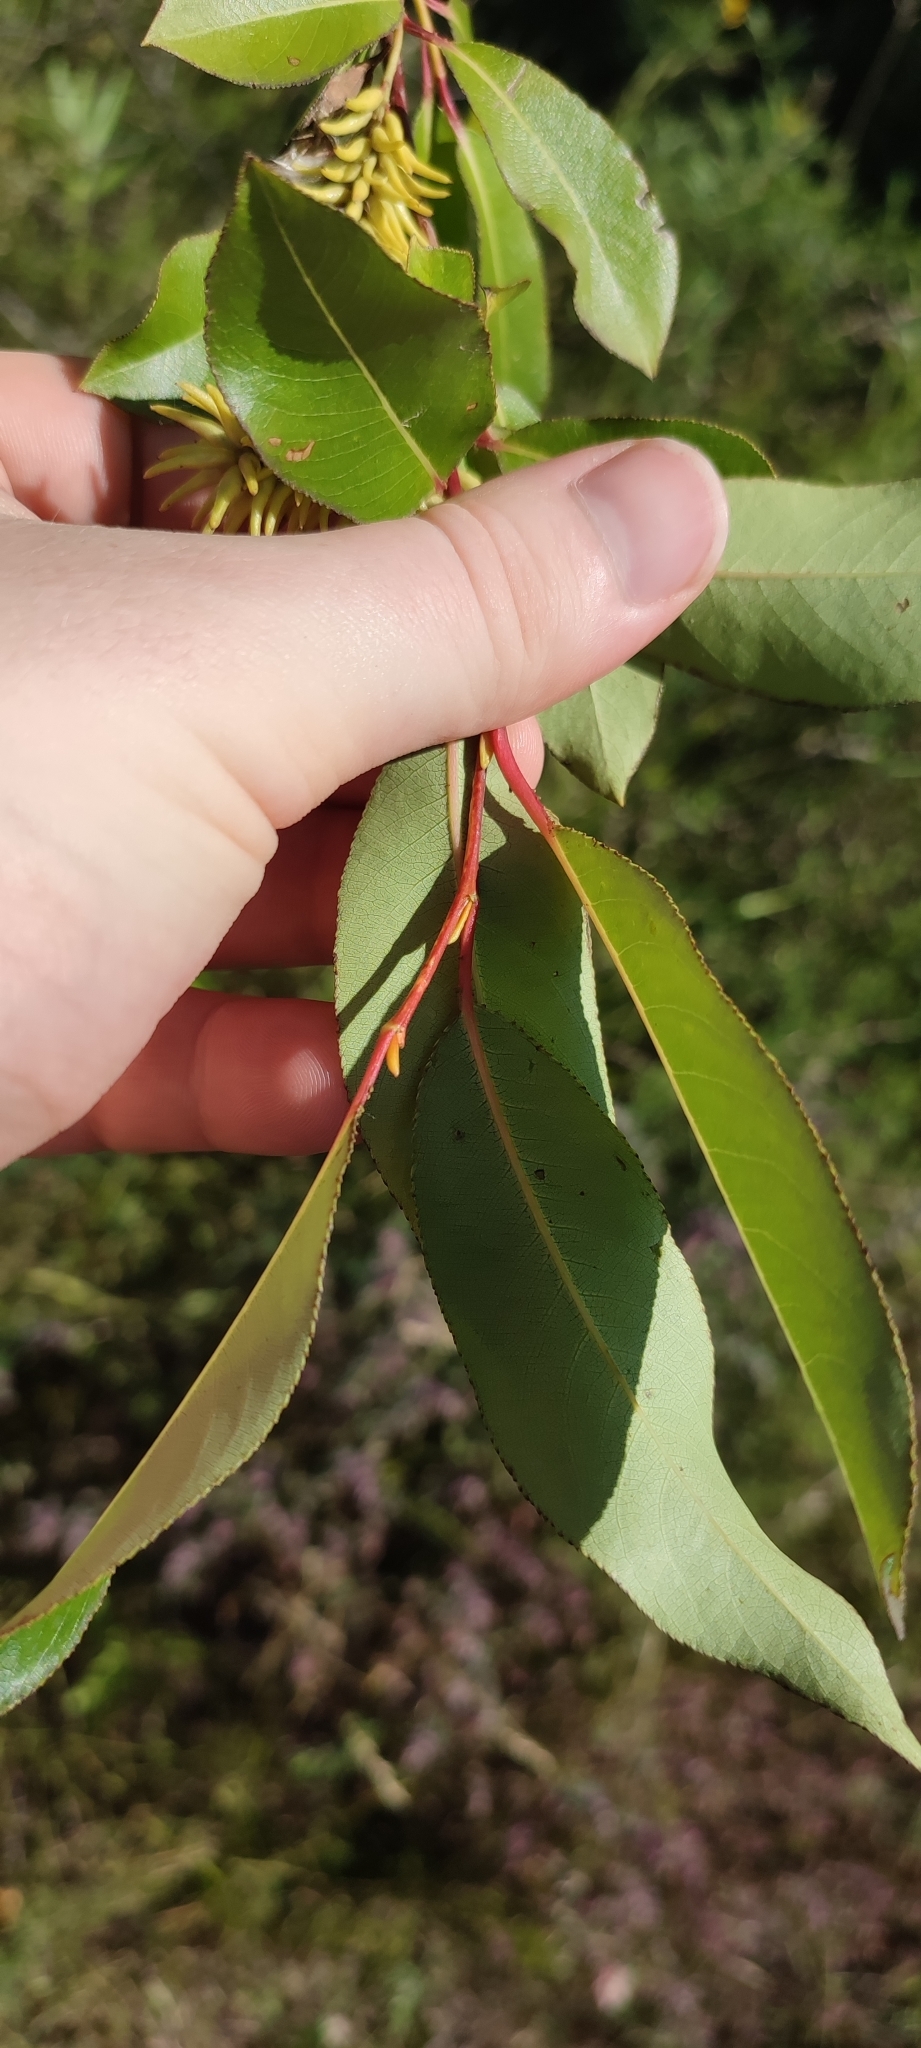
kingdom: Plantae
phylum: Tracheophyta
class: Magnoliopsida
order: Malpighiales
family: Salicaceae
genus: Salix
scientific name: Salix pentandra
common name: Bay willow
